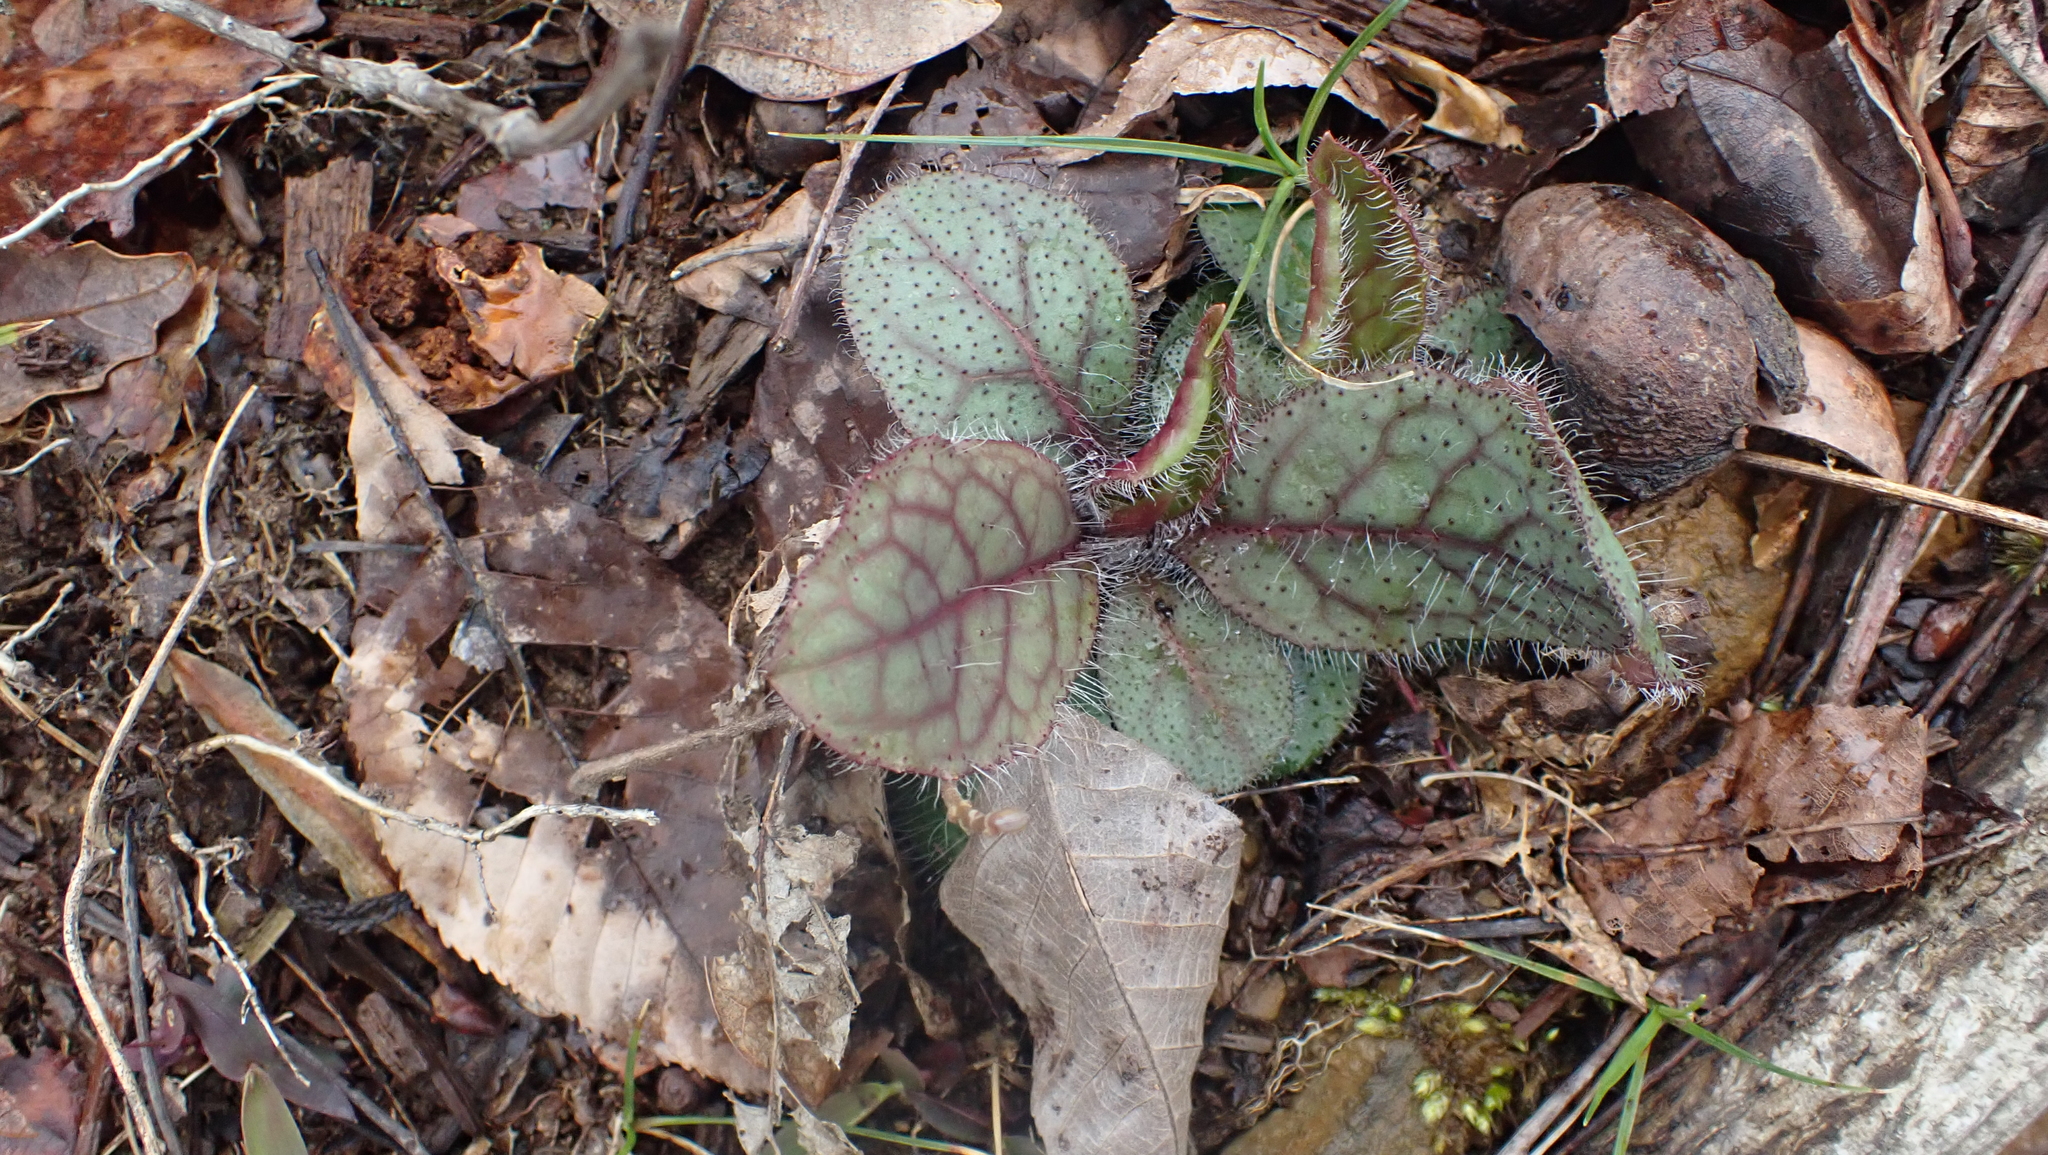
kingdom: Plantae
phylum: Tracheophyta
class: Magnoliopsida
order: Asterales
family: Asteraceae
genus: Hieracium
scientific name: Hieracium venosum
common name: Rattlesnake hawkweed
